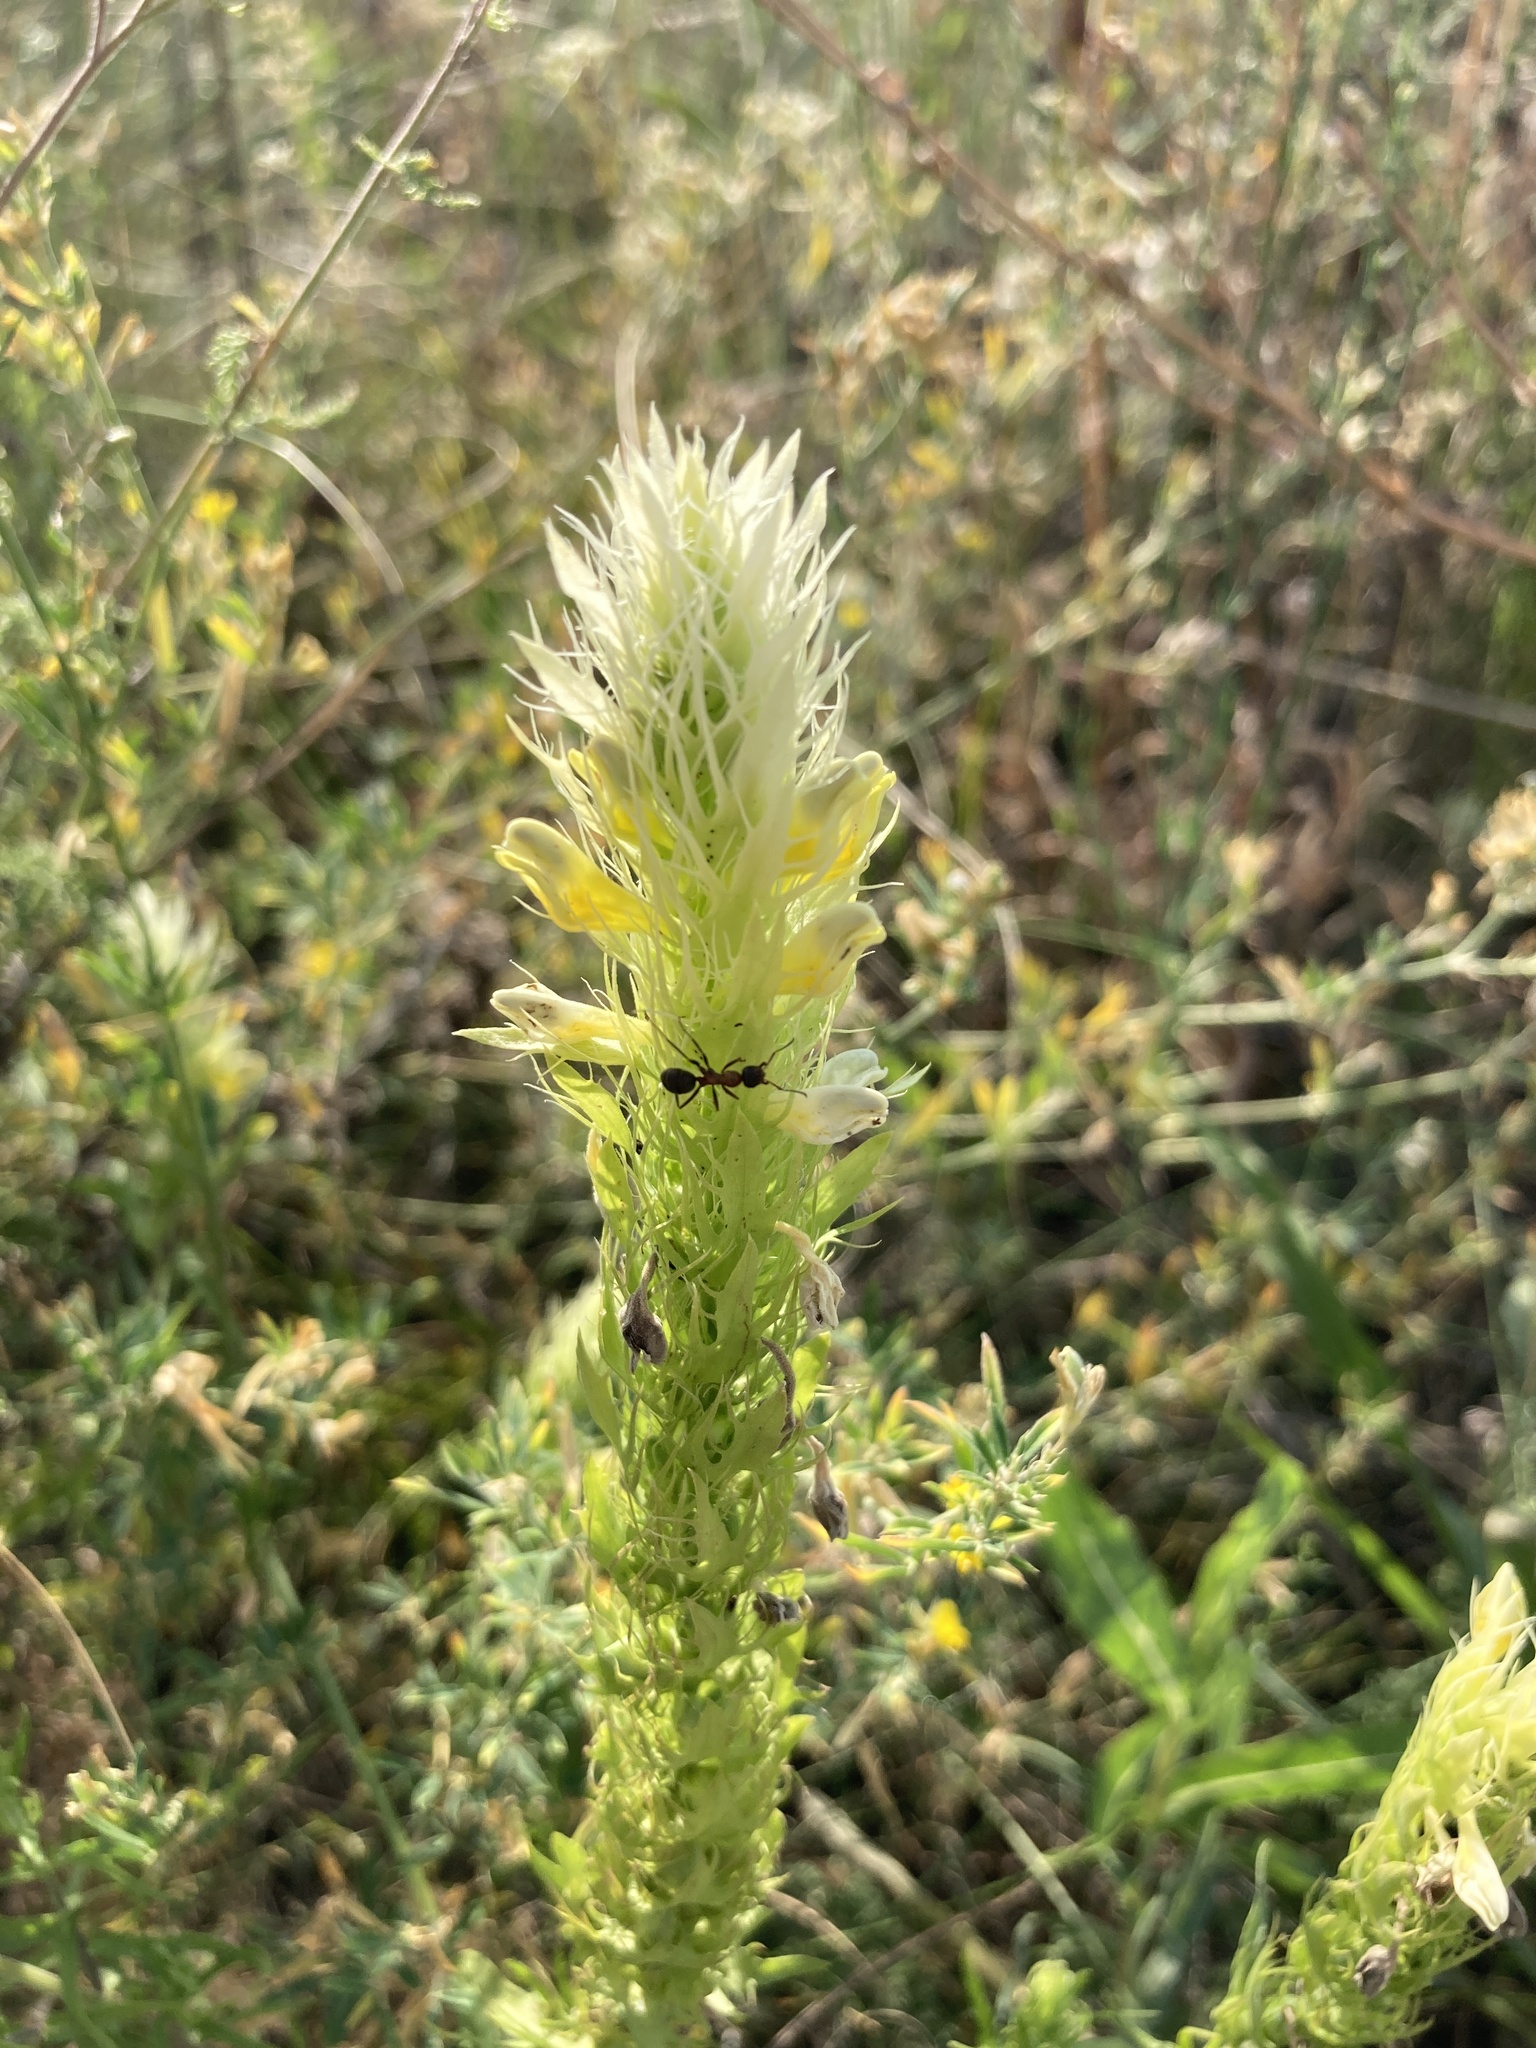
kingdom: Plantae
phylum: Tracheophyta
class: Magnoliopsida
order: Lamiales
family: Orobanchaceae
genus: Melampyrum
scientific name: Melampyrum arvense
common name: Field cow-wheat
